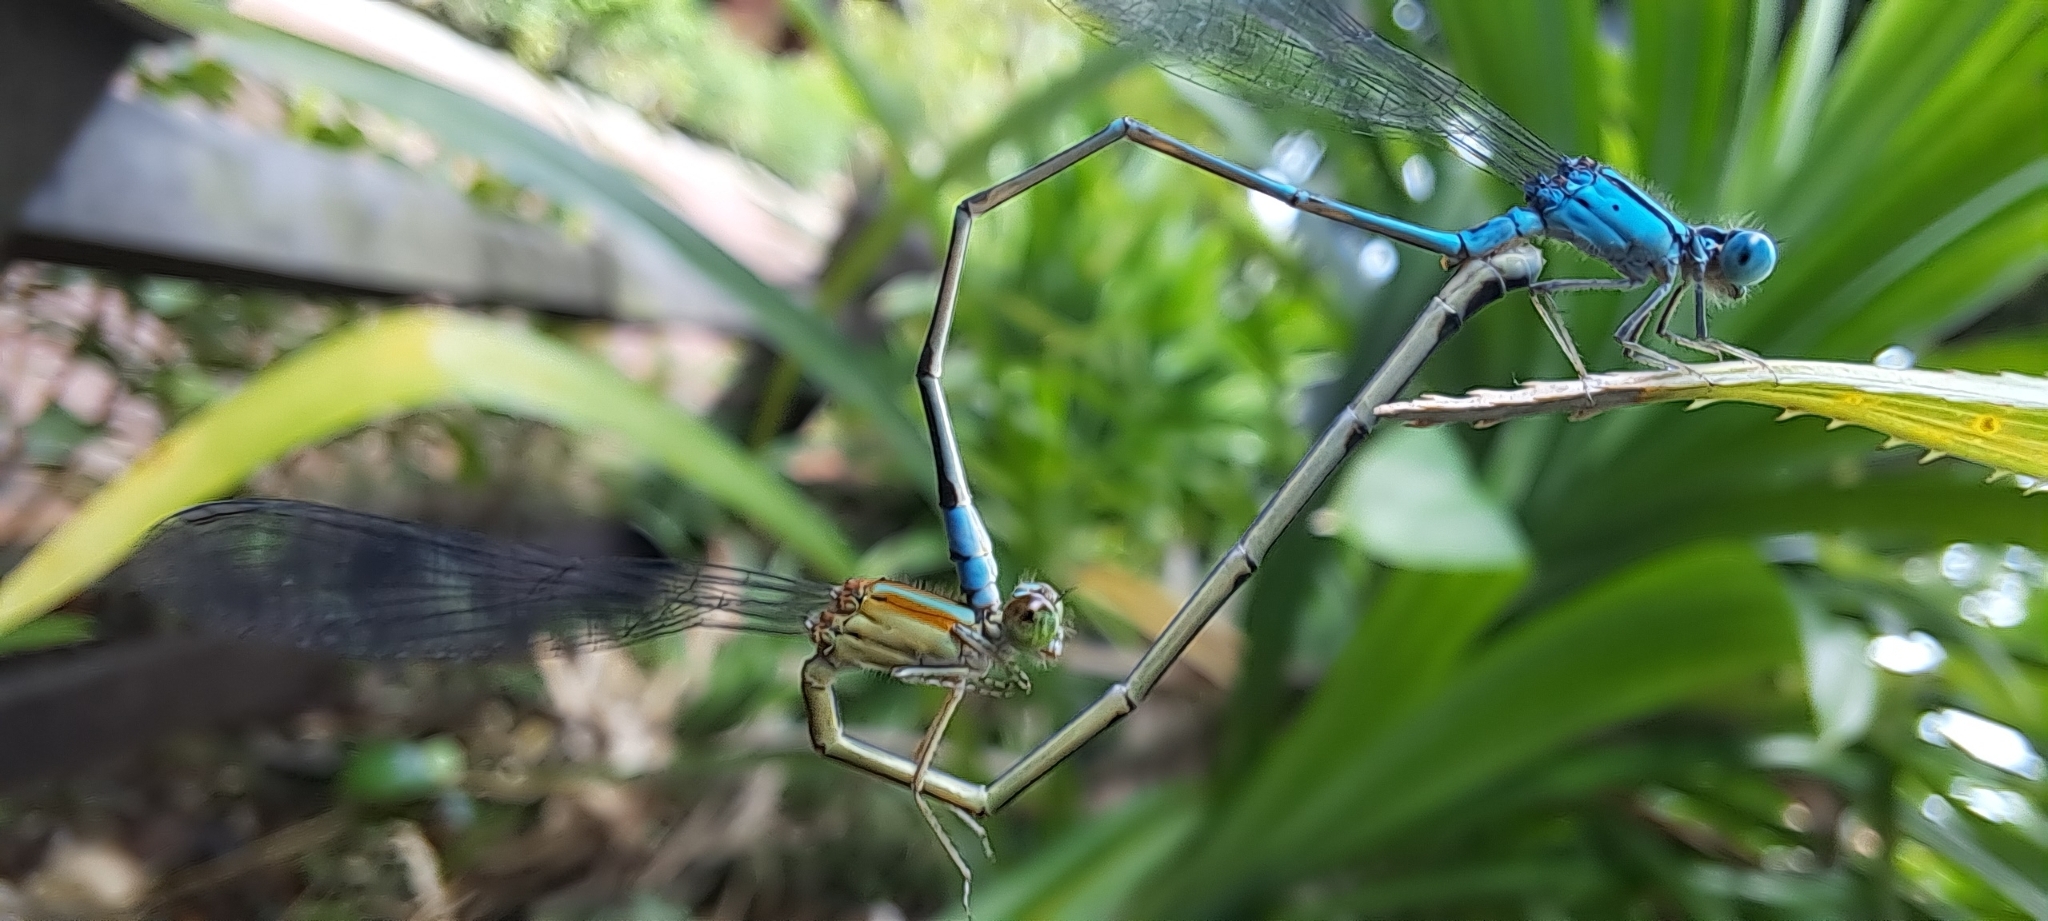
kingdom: Animalia
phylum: Arthropoda
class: Insecta
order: Odonata
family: Coenagrionidae
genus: Pseudagrion
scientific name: Pseudagrion microcephalum
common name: Blue riverdamsel
